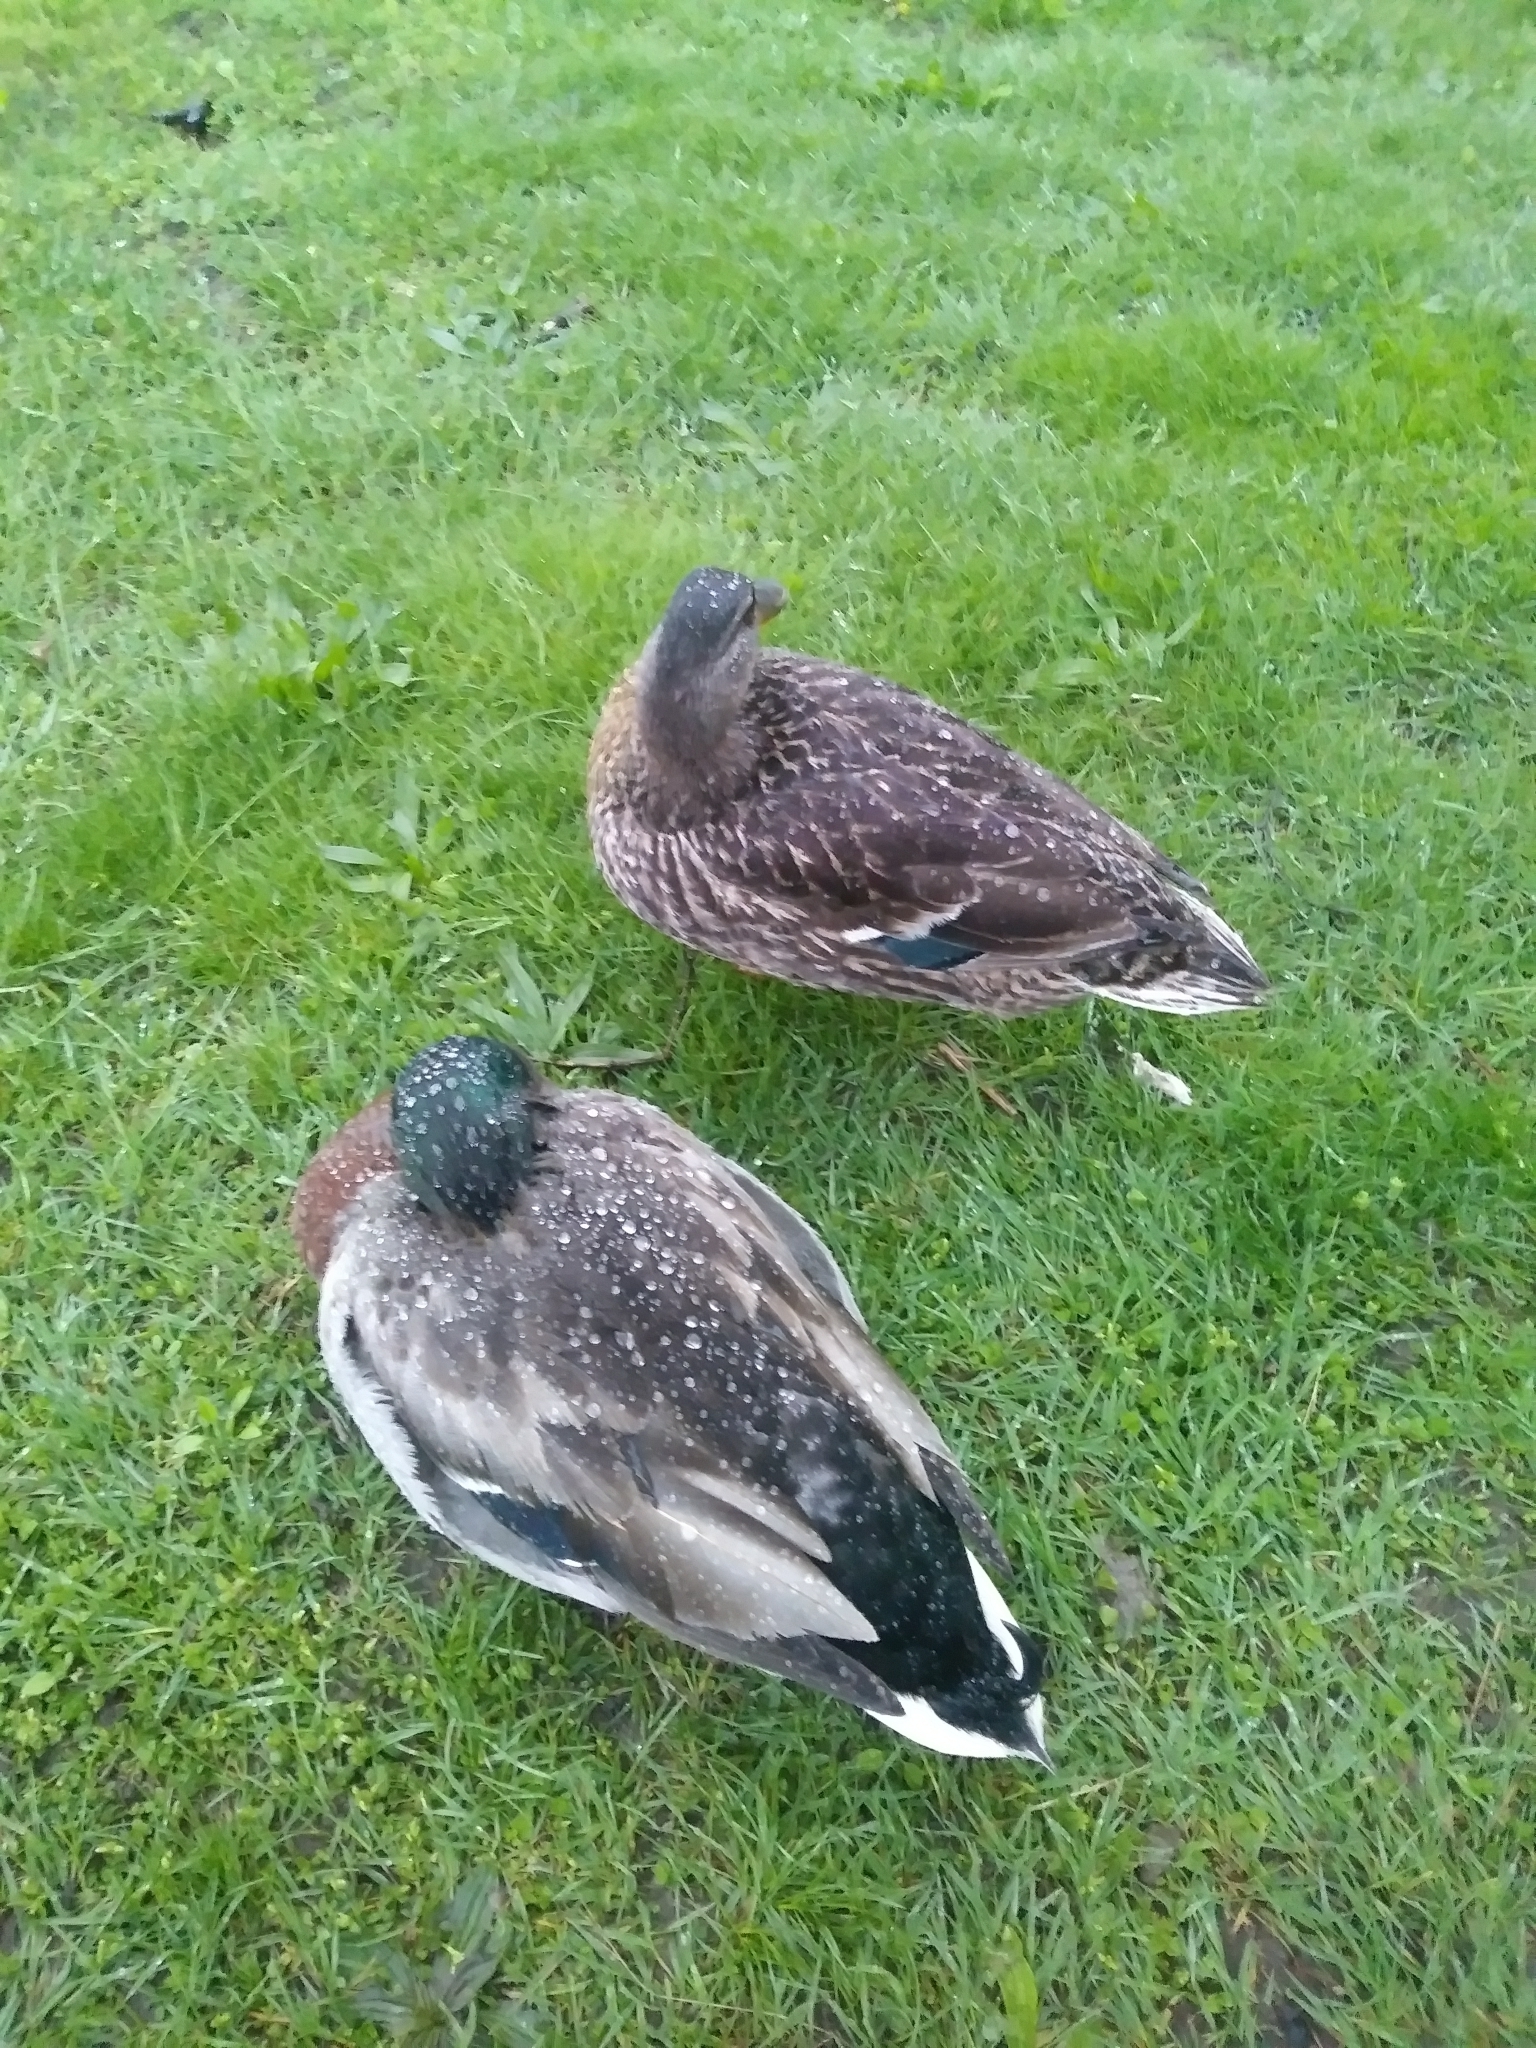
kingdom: Animalia
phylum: Chordata
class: Aves
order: Anseriformes
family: Anatidae
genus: Anas
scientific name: Anas platyrhynchos
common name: Mallard
